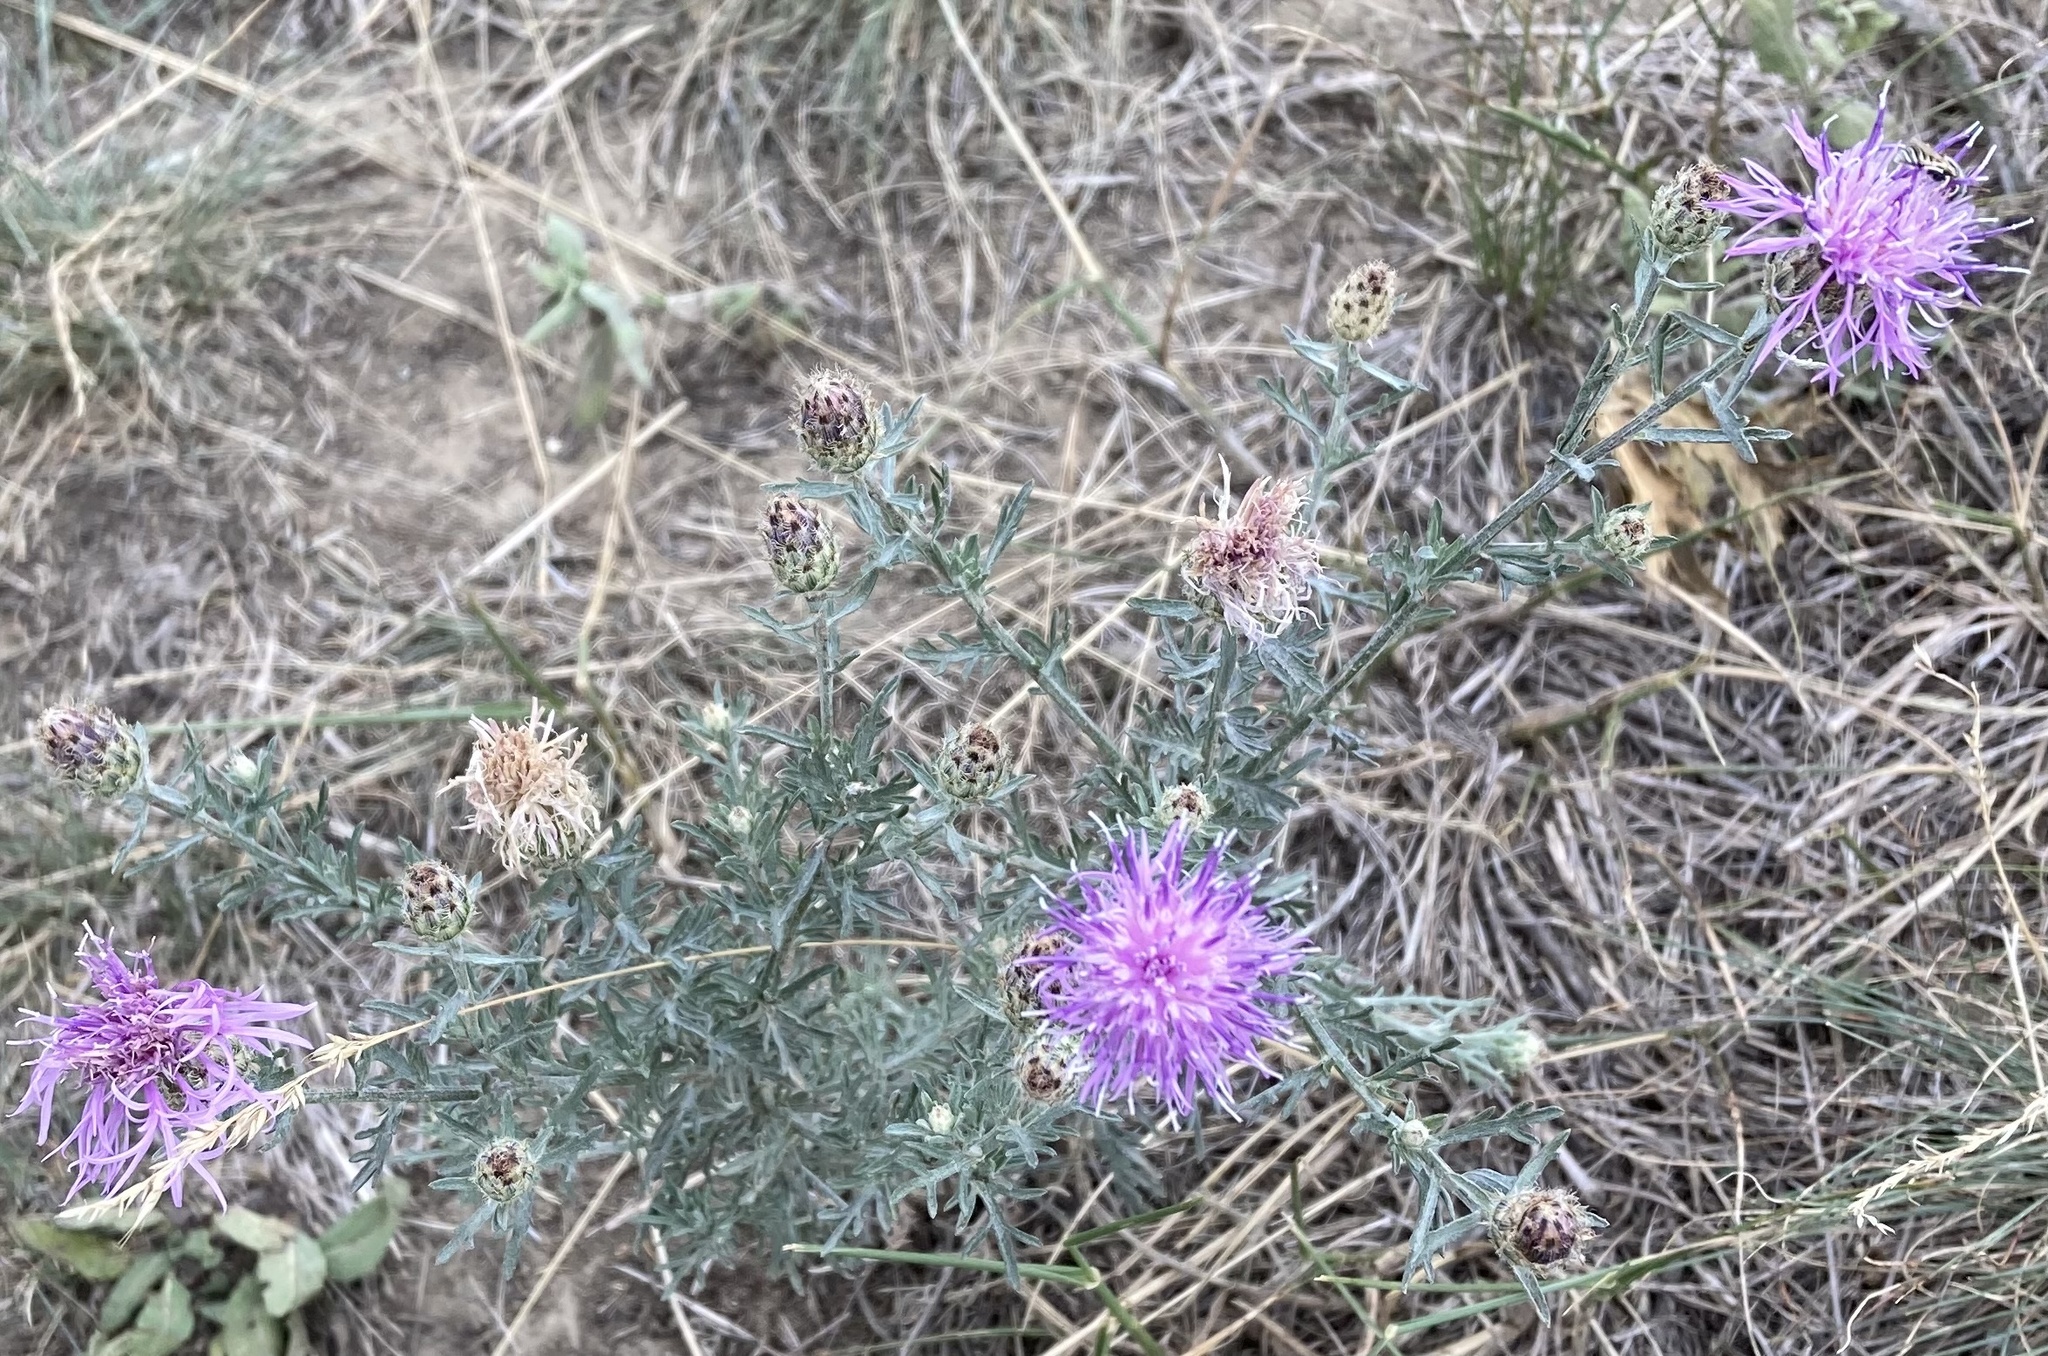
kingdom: Plantae
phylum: Tracheophyta
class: Magnoliopsida
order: Asterales
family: Asteraceae
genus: Centaurea
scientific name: Centaurea stoebe
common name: Spotted knapweed
